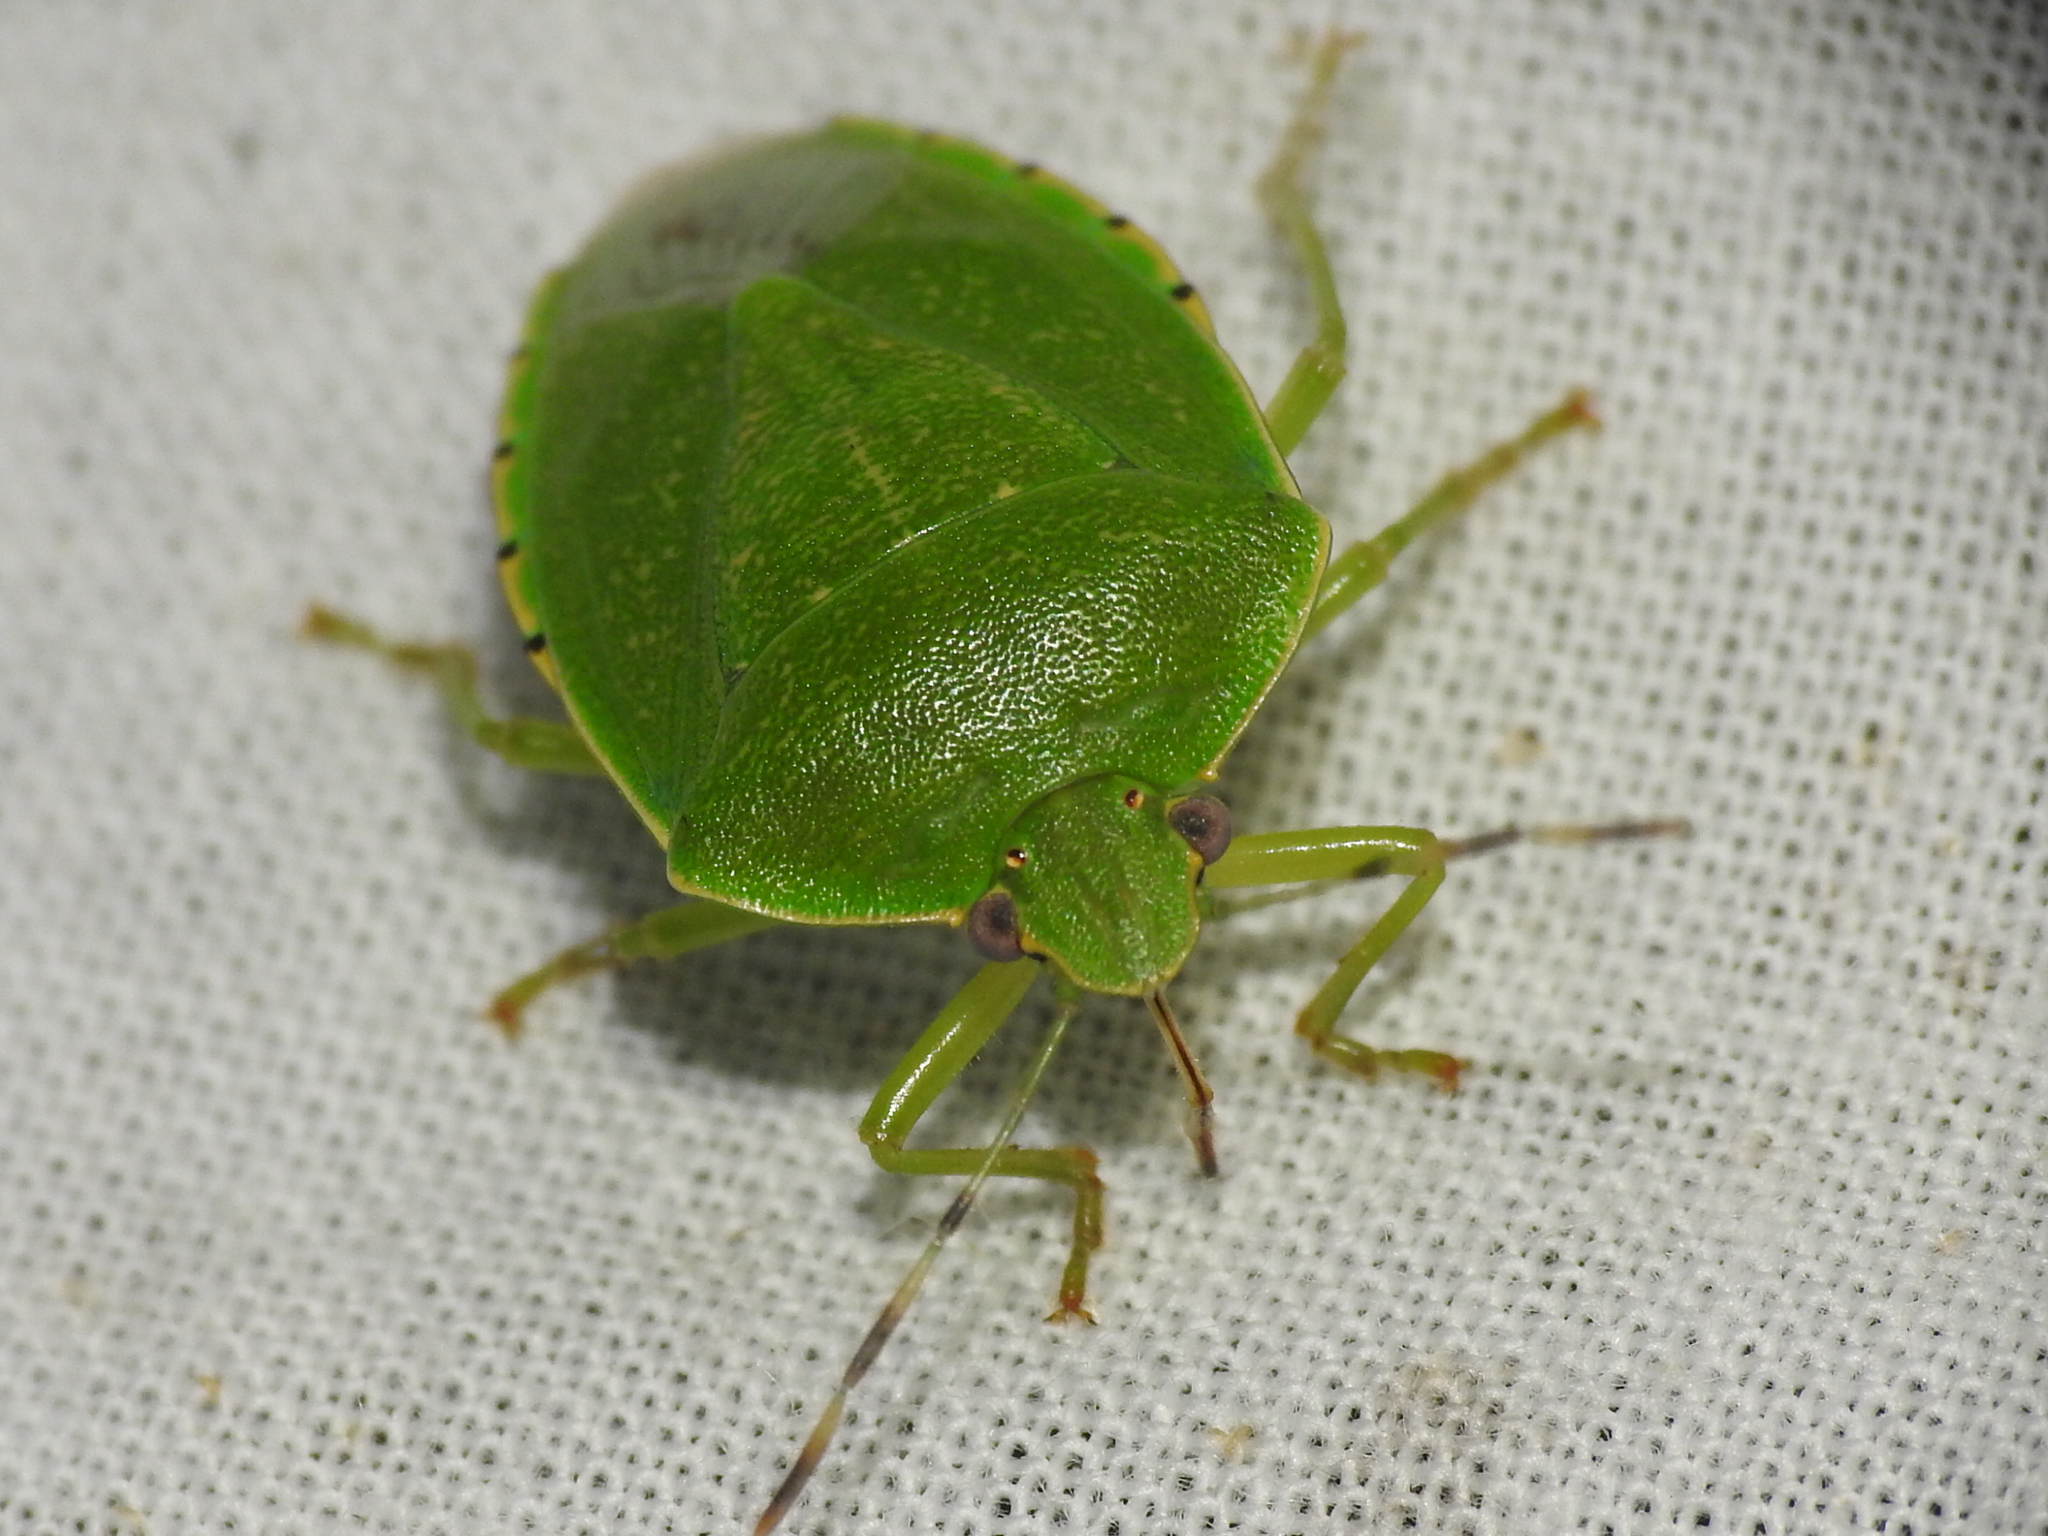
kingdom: Animalia
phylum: Arthropoda
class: Insecta
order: Hemiptera
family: Pentatomidae
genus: Chinavia
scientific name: Chinavia hilaris
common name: Green stink bug
